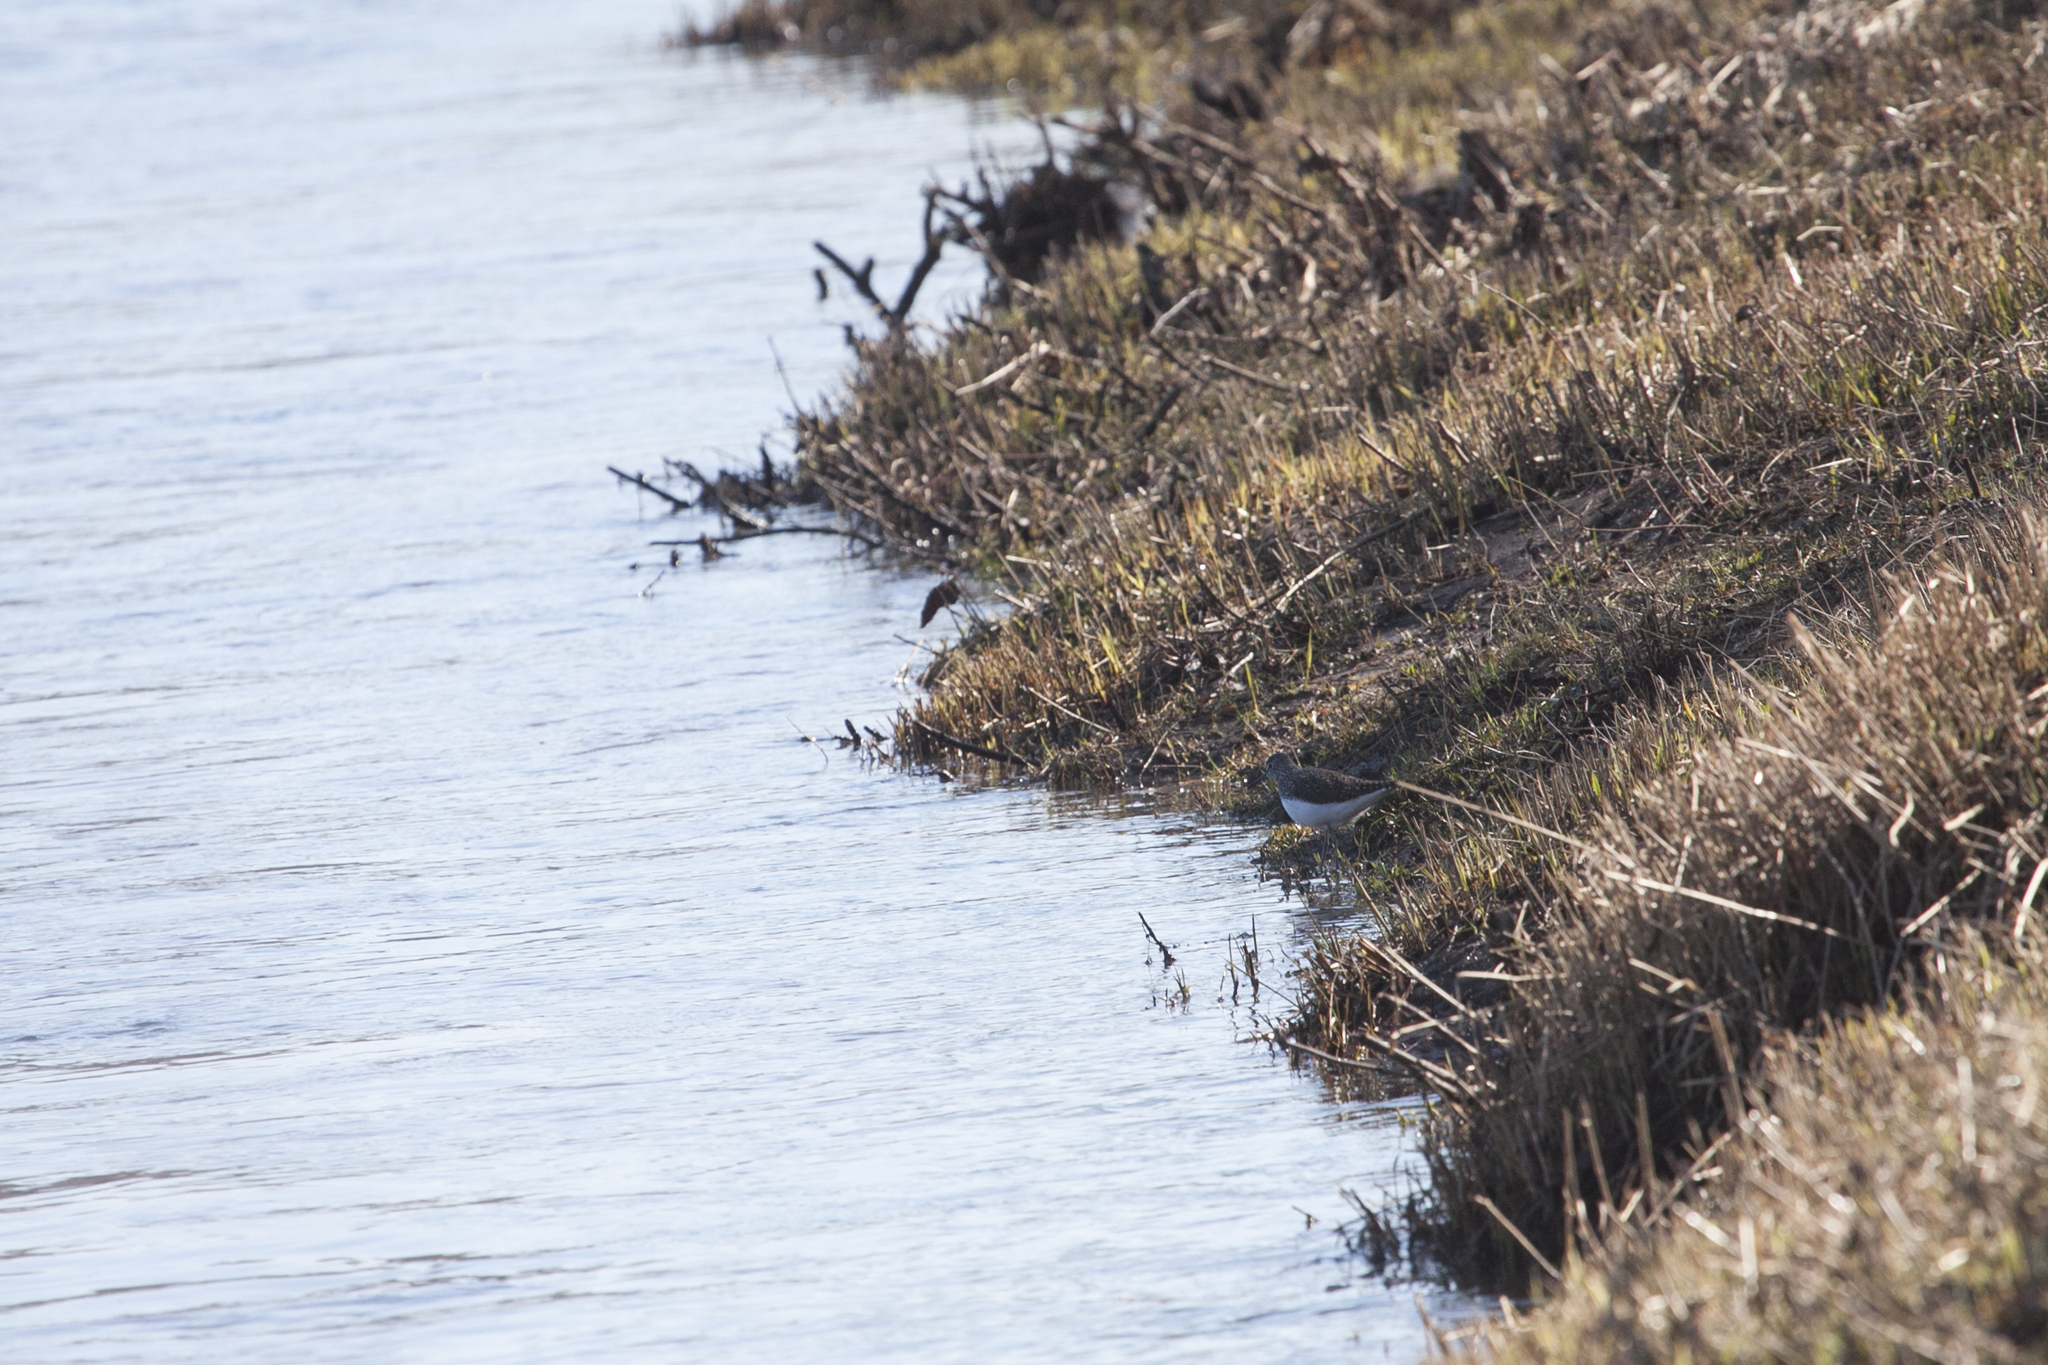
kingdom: Animalia
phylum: Chordata
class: Aves
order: Charadriiformes
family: Scolopacidae
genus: Tringa
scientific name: Tringa ochropus
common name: Green sandpiper
